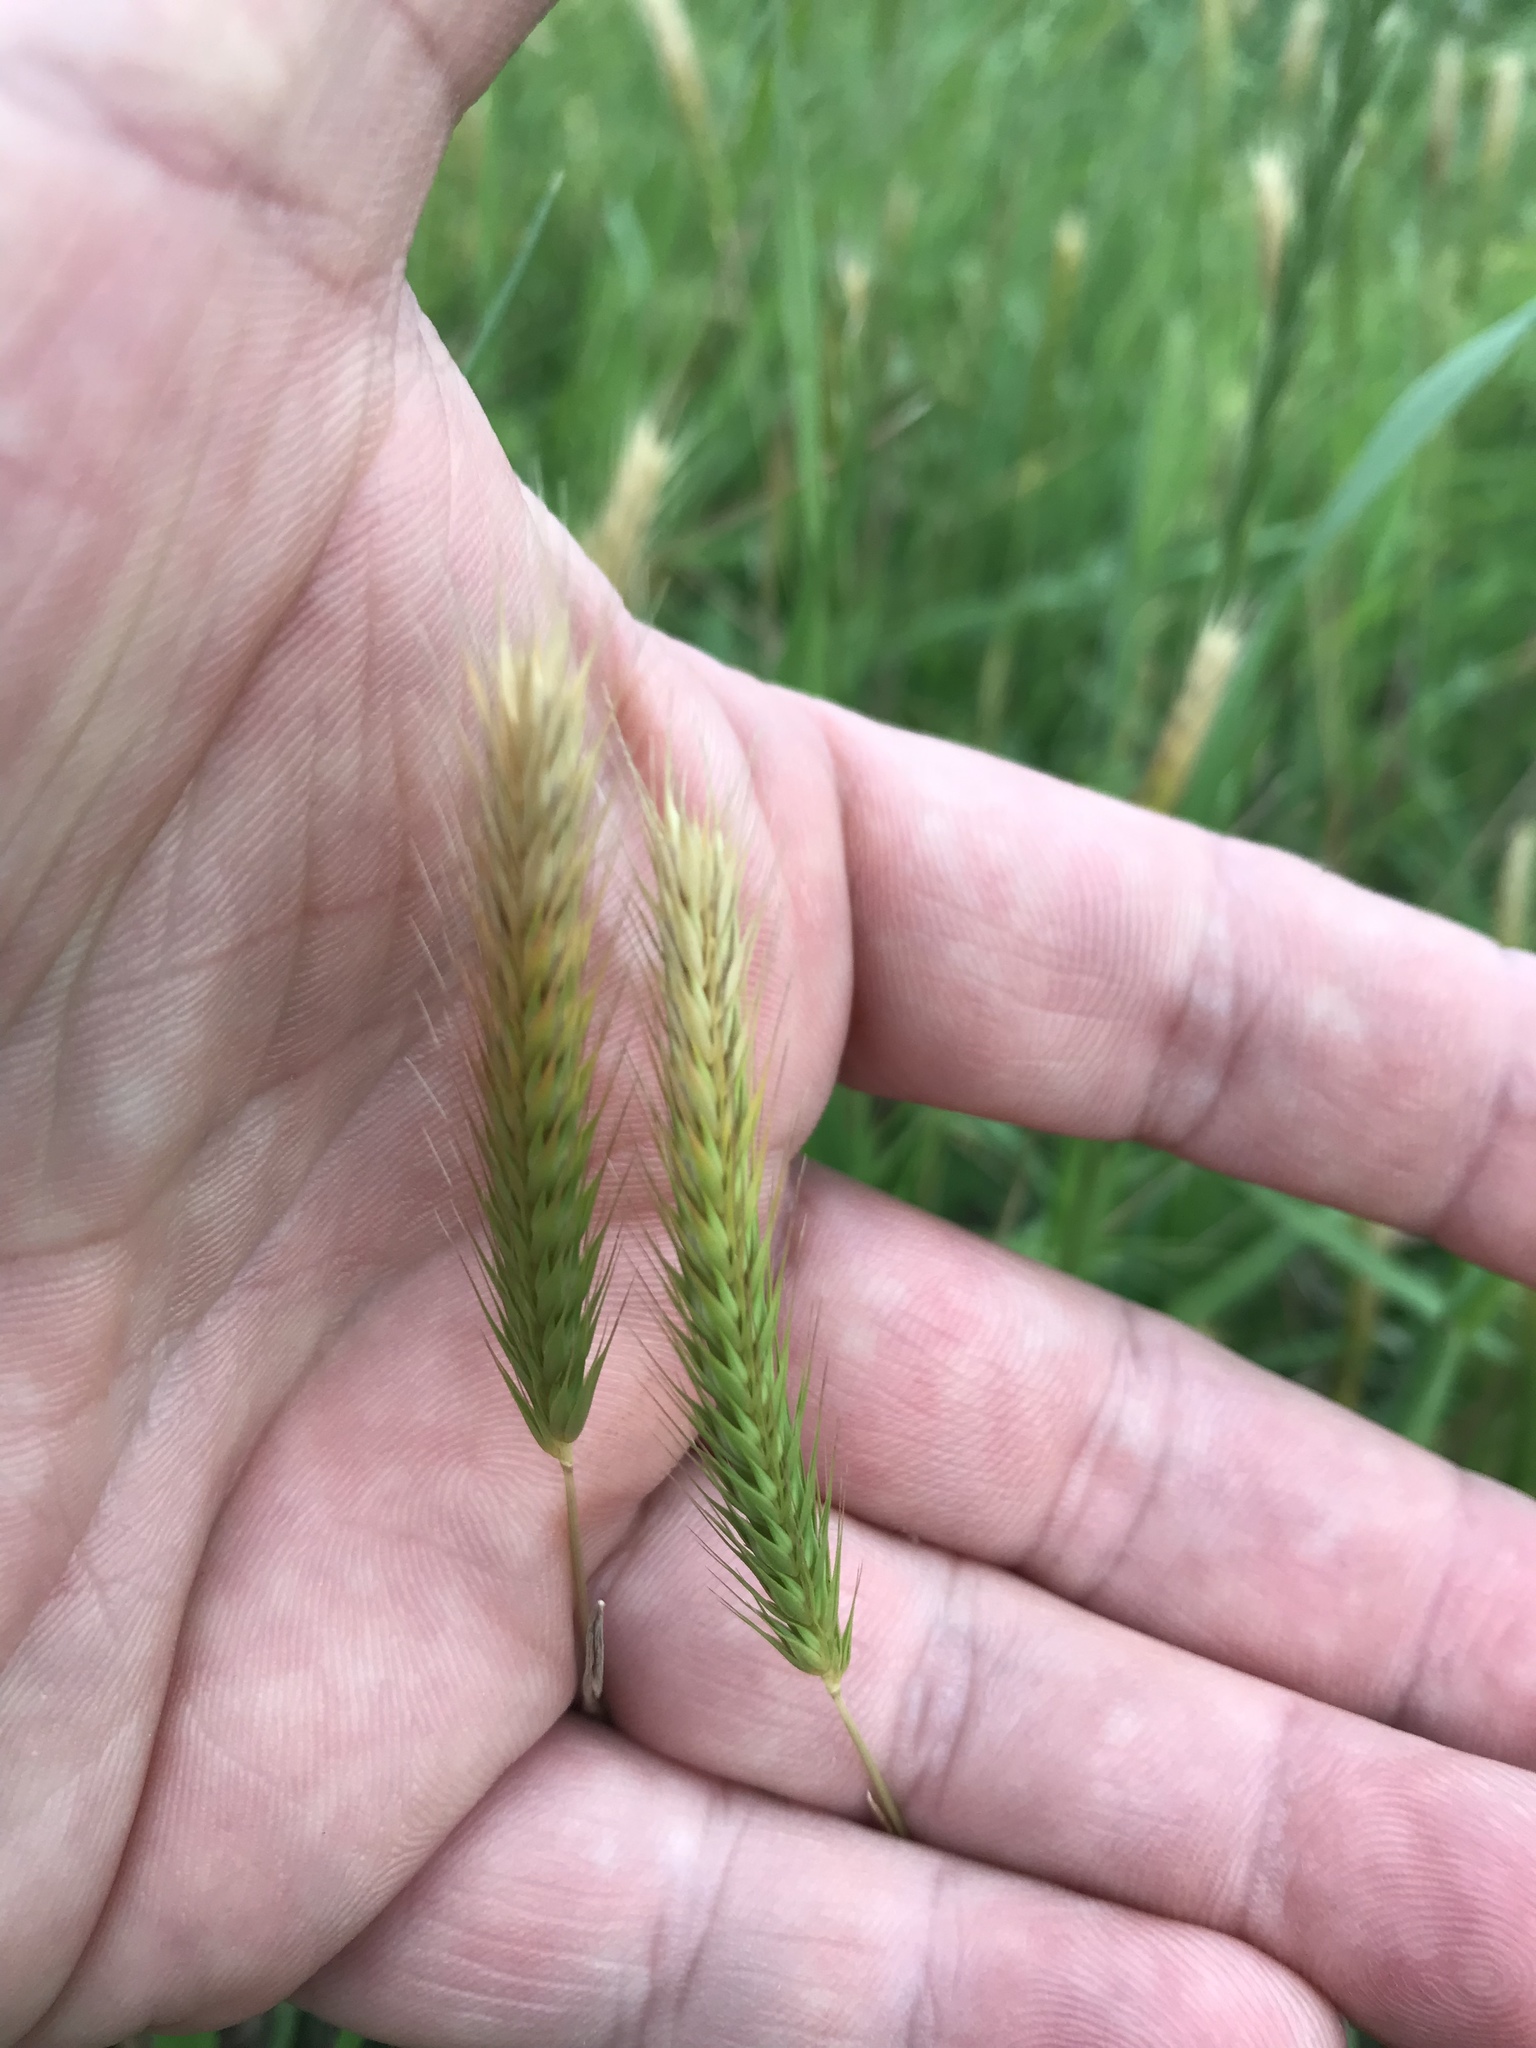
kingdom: Plantae
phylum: Tracheophyta
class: Liliopsida
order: Poales
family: Poaceae
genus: Hordeum
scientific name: Hordeum pusillum
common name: Little barley
